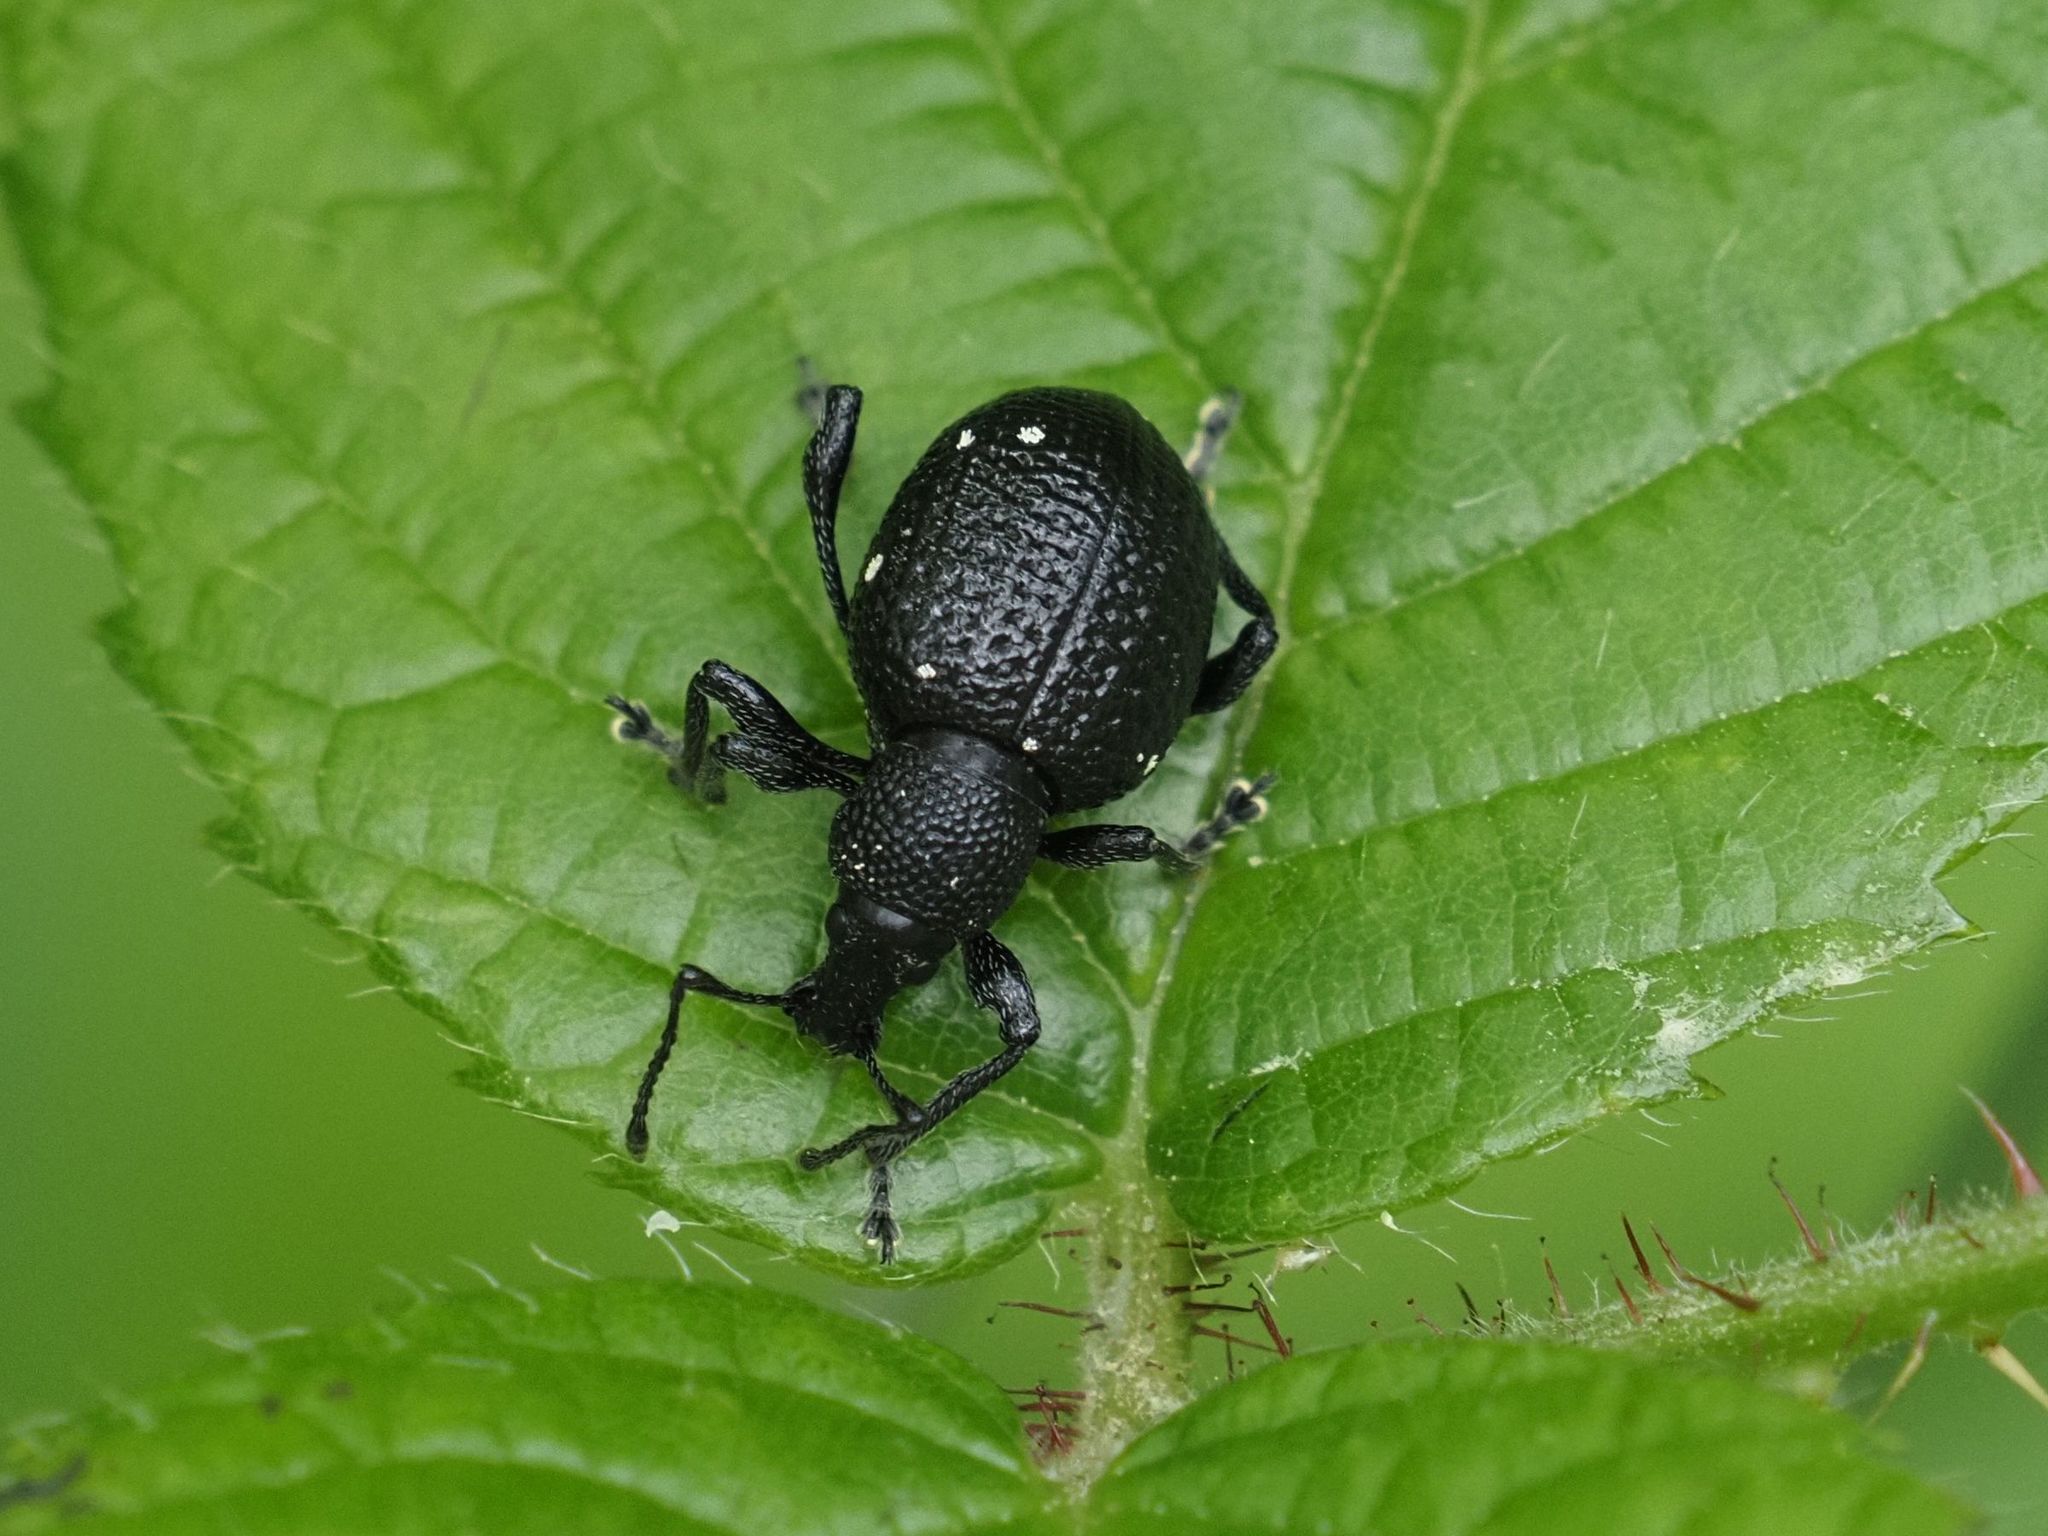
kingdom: Animalia
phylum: Arthropoda
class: Insecta
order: Coleoptera
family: Curculionidae
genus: Otiorhynchus
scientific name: Otiorhynchus gemmatus
